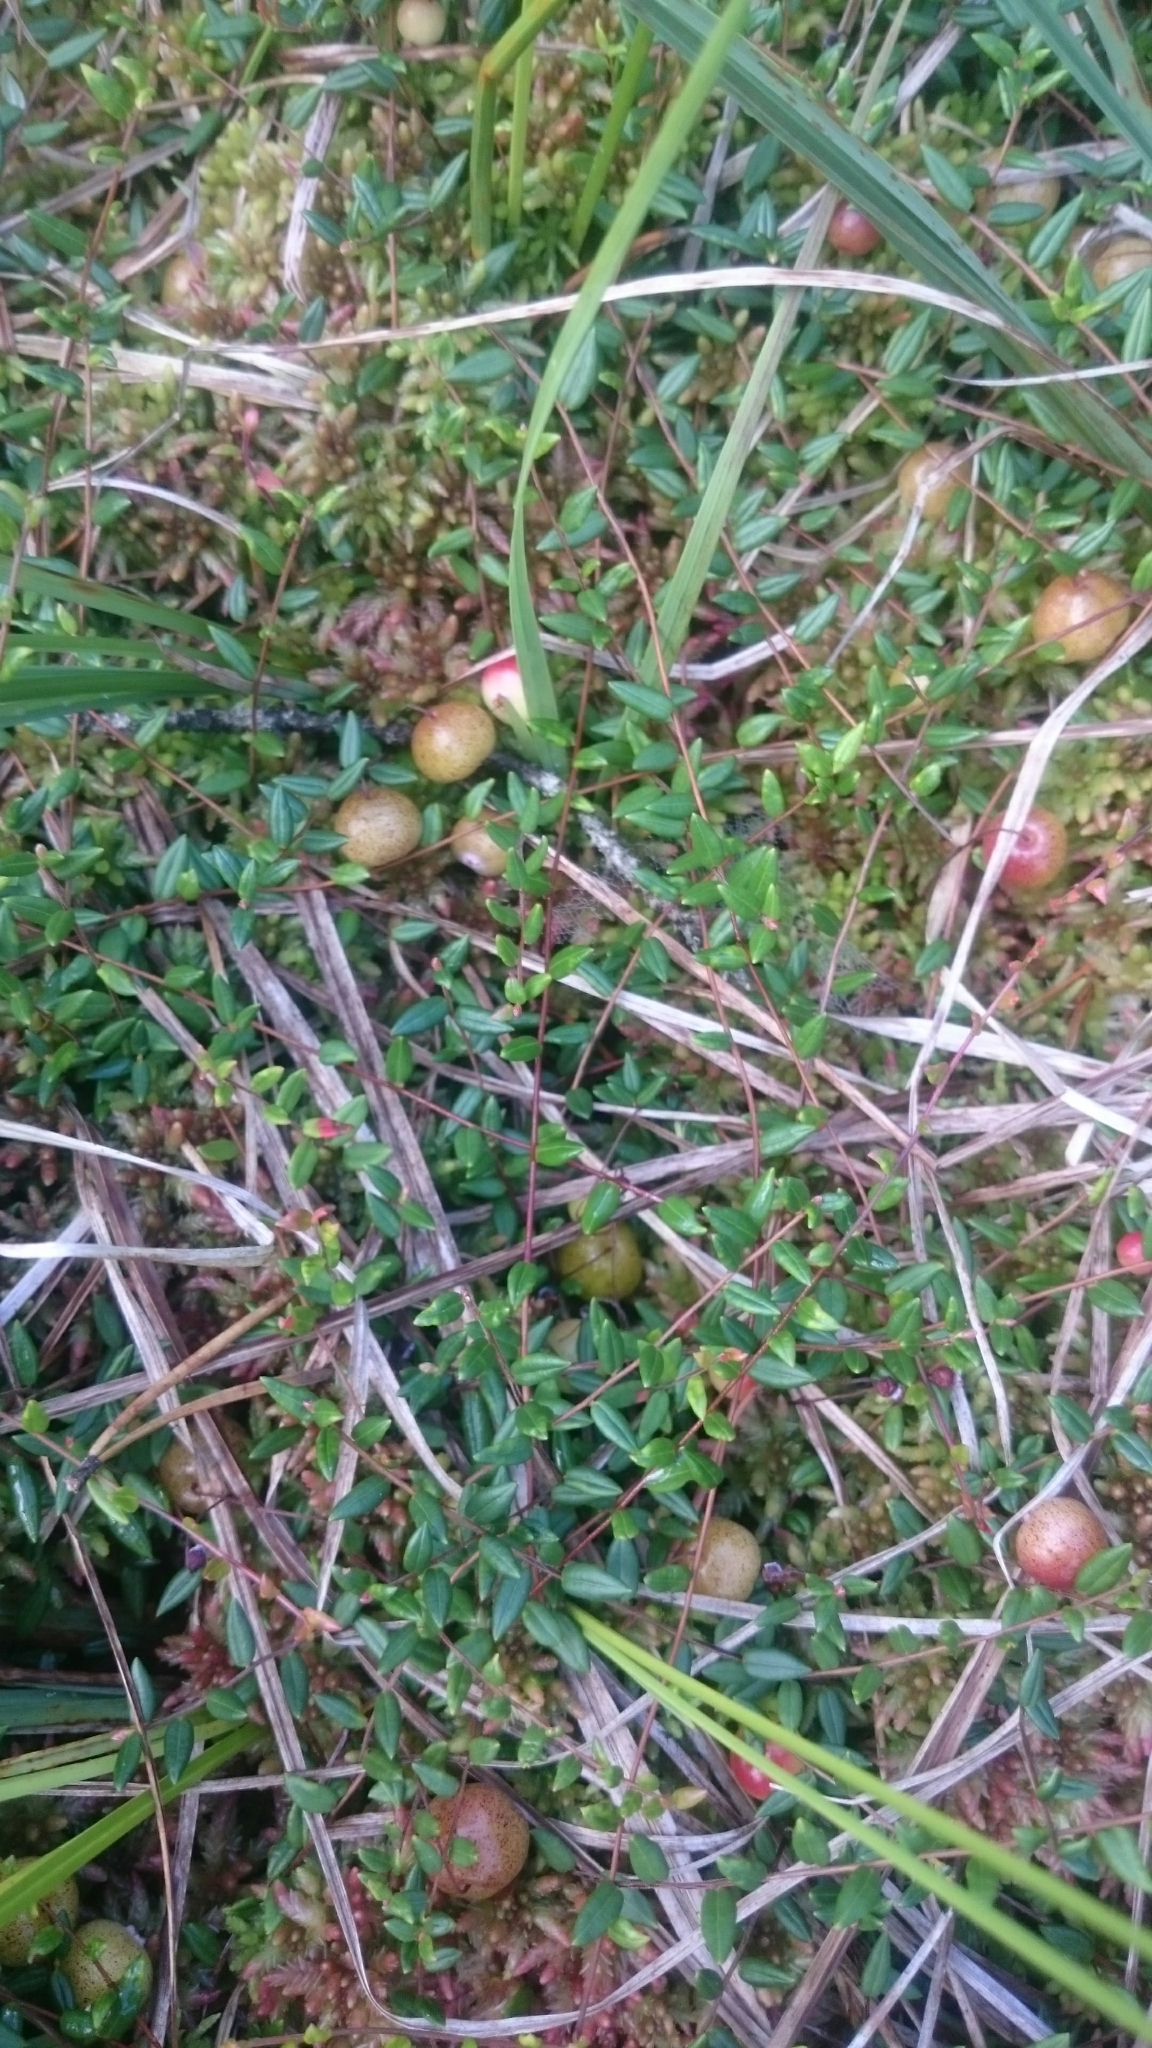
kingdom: Plantae
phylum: Tracheophyta
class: Magnoliopsida
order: Ericales
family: Ericaceae
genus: Vaccinium
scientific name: Vaccinium oxycoccos
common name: Cranberry
